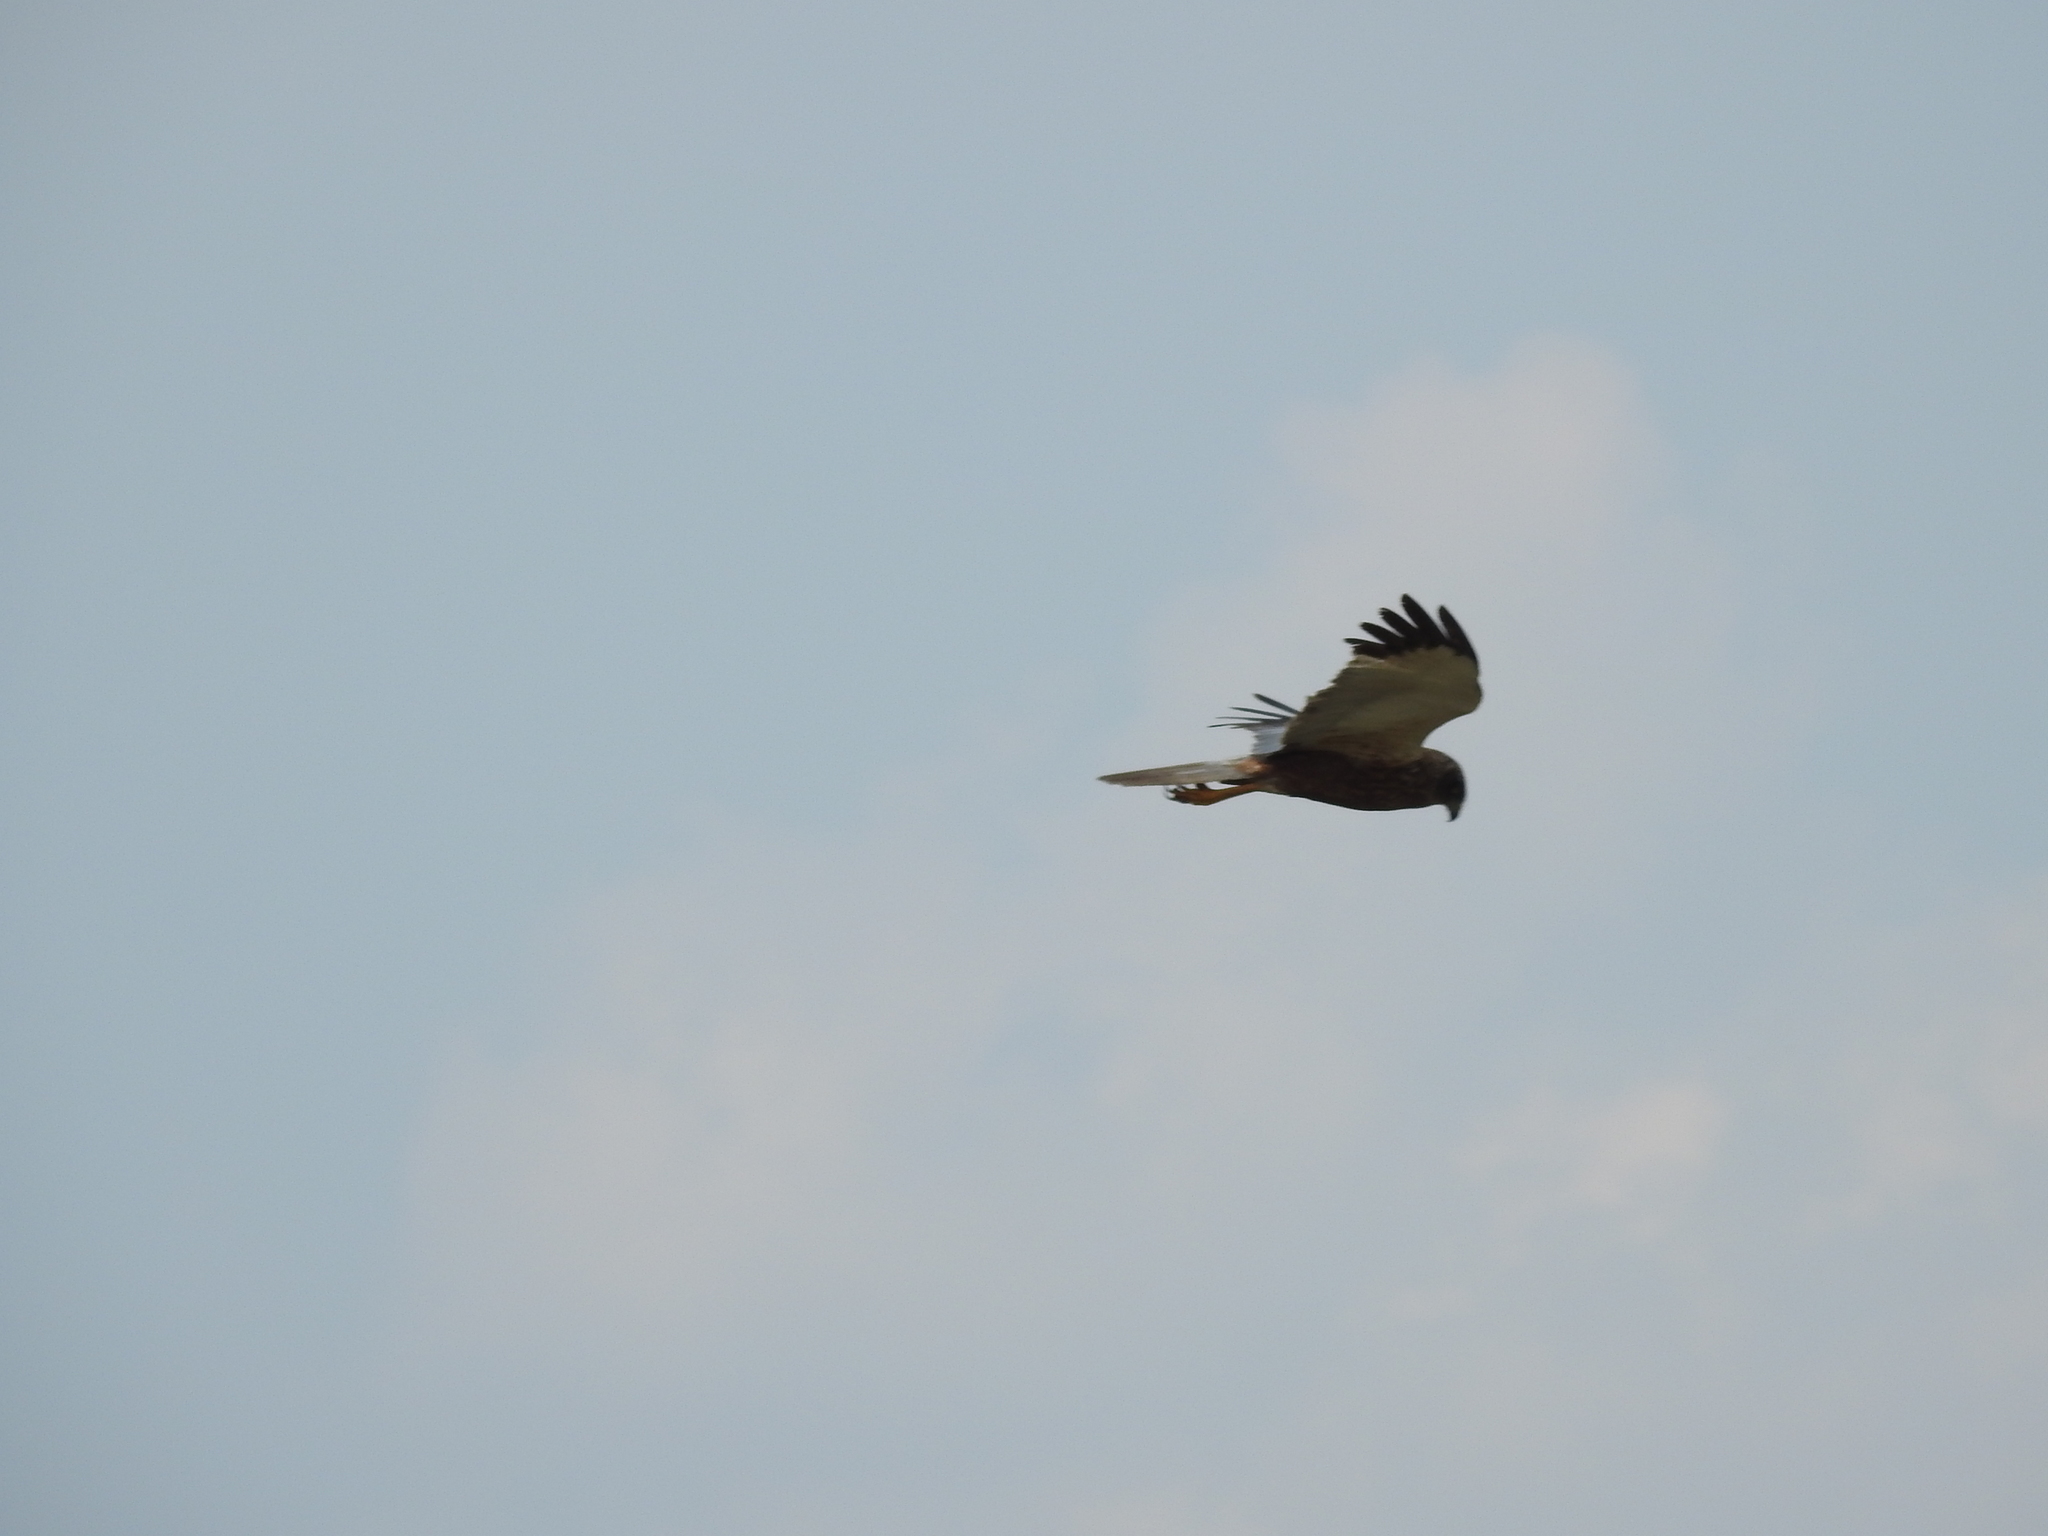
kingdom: Animalia
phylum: Chordata
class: Aves
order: Accipitriformes
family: Accipitridae
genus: Circus
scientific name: Circus aeruginosus
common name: Western marsh harrier
